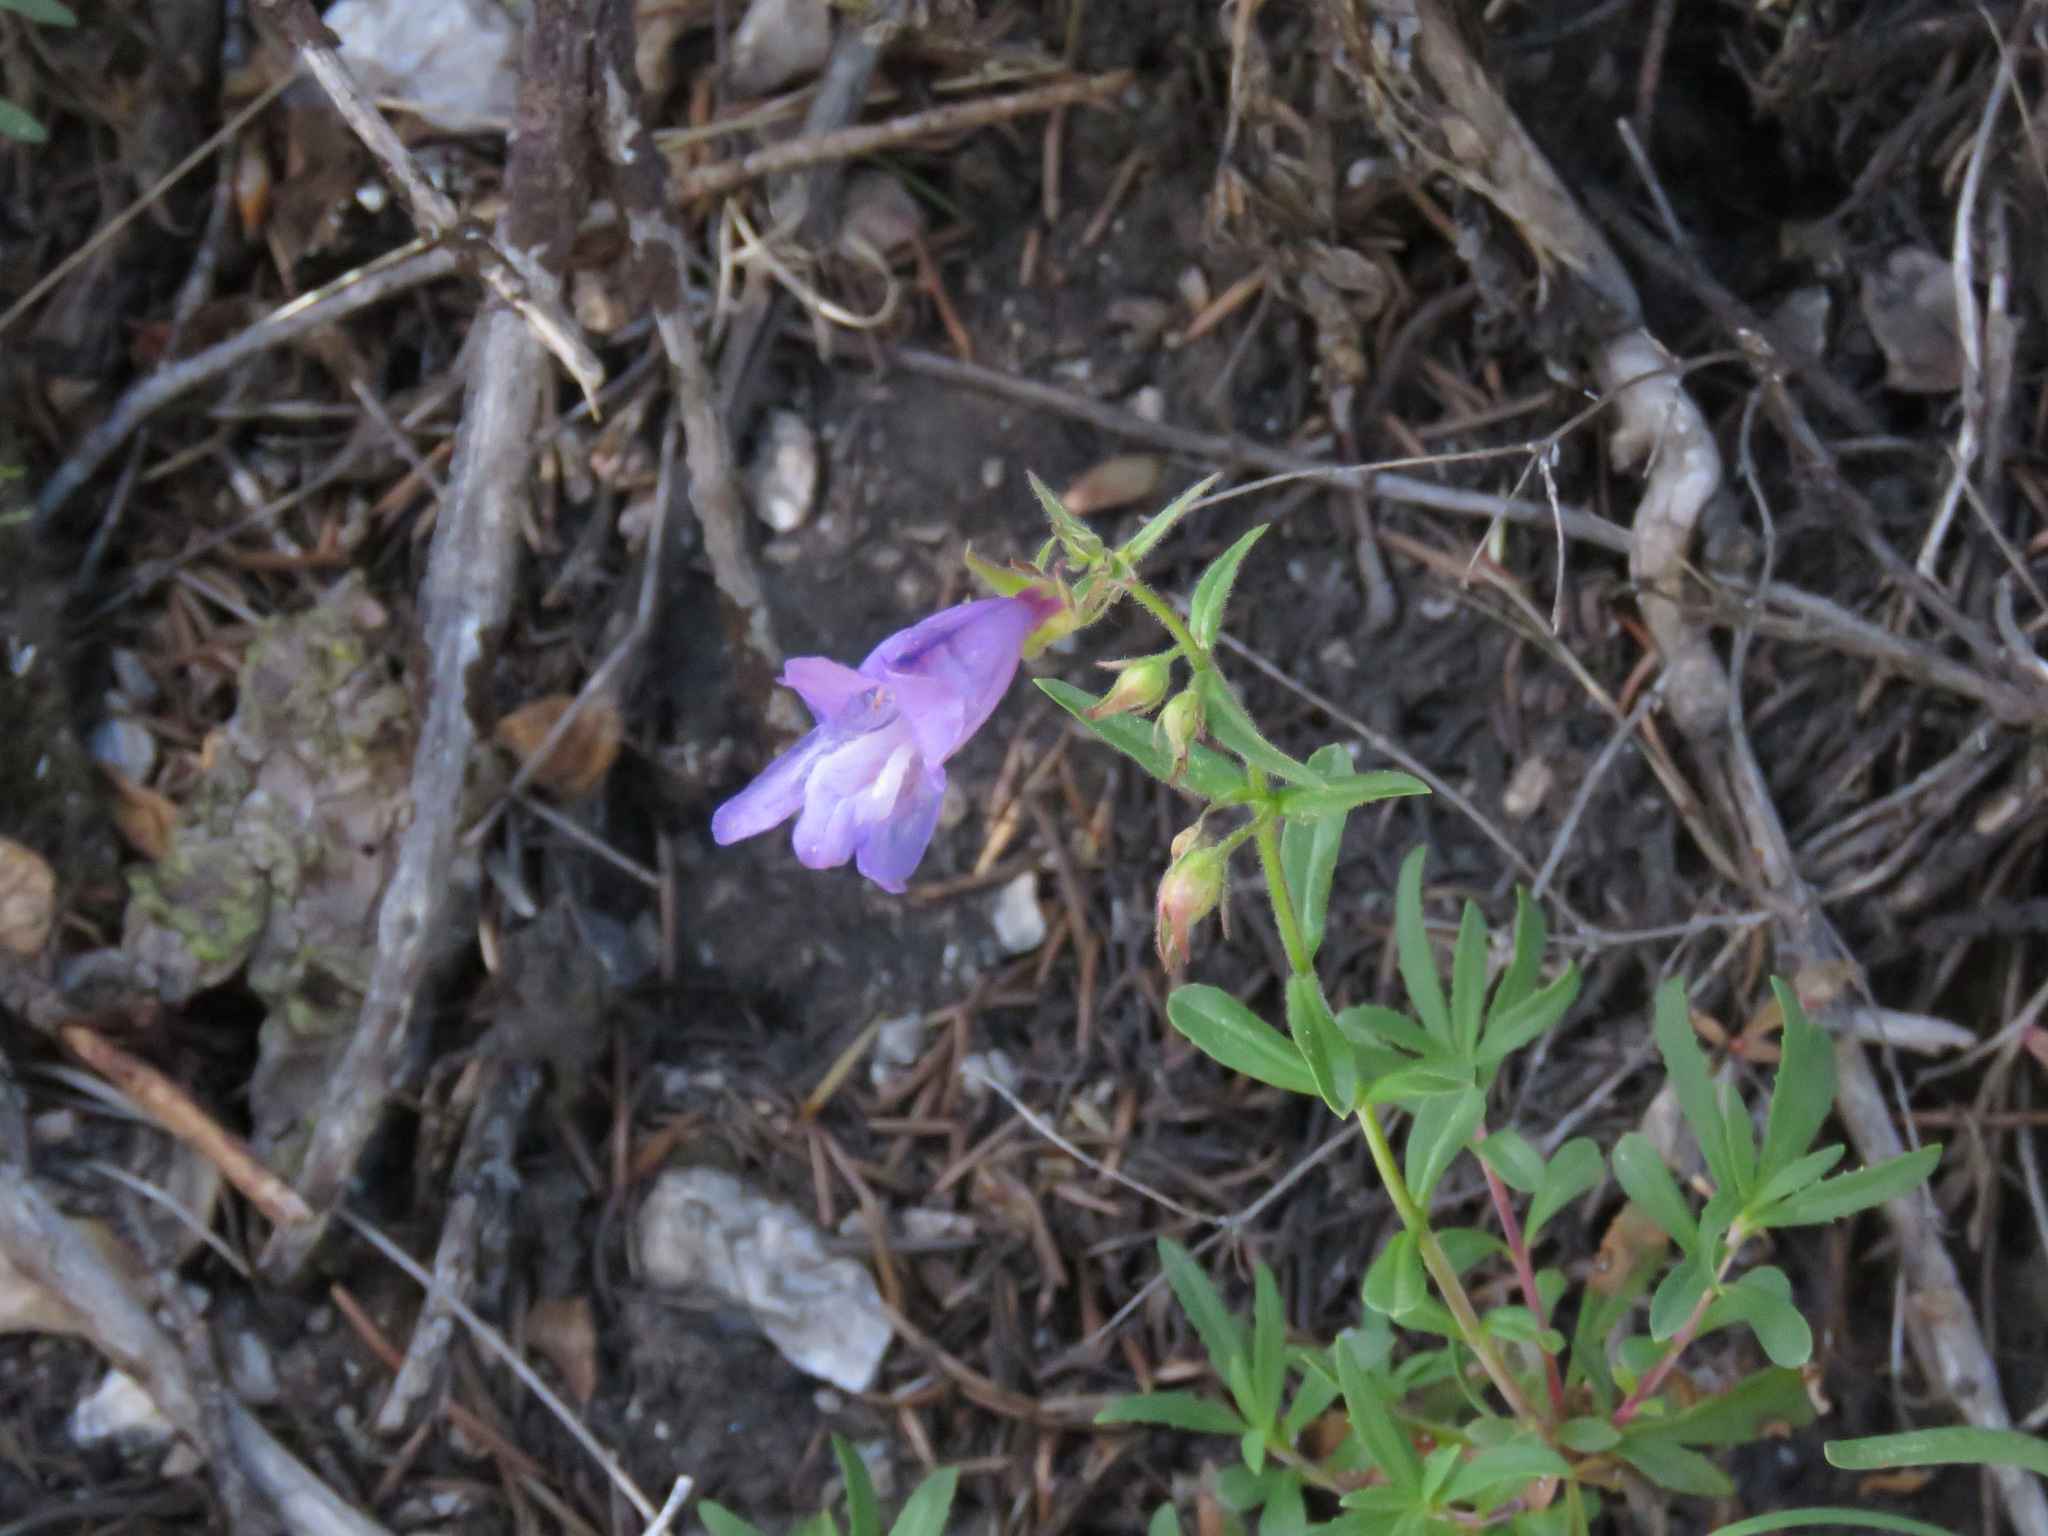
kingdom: Plantae
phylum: Tracheophyta
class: Magnoliopsida
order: Lamiales
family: Plantaginaceae
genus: Penstemon
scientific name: Penstemon fruticosus
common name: Bush penstemon
